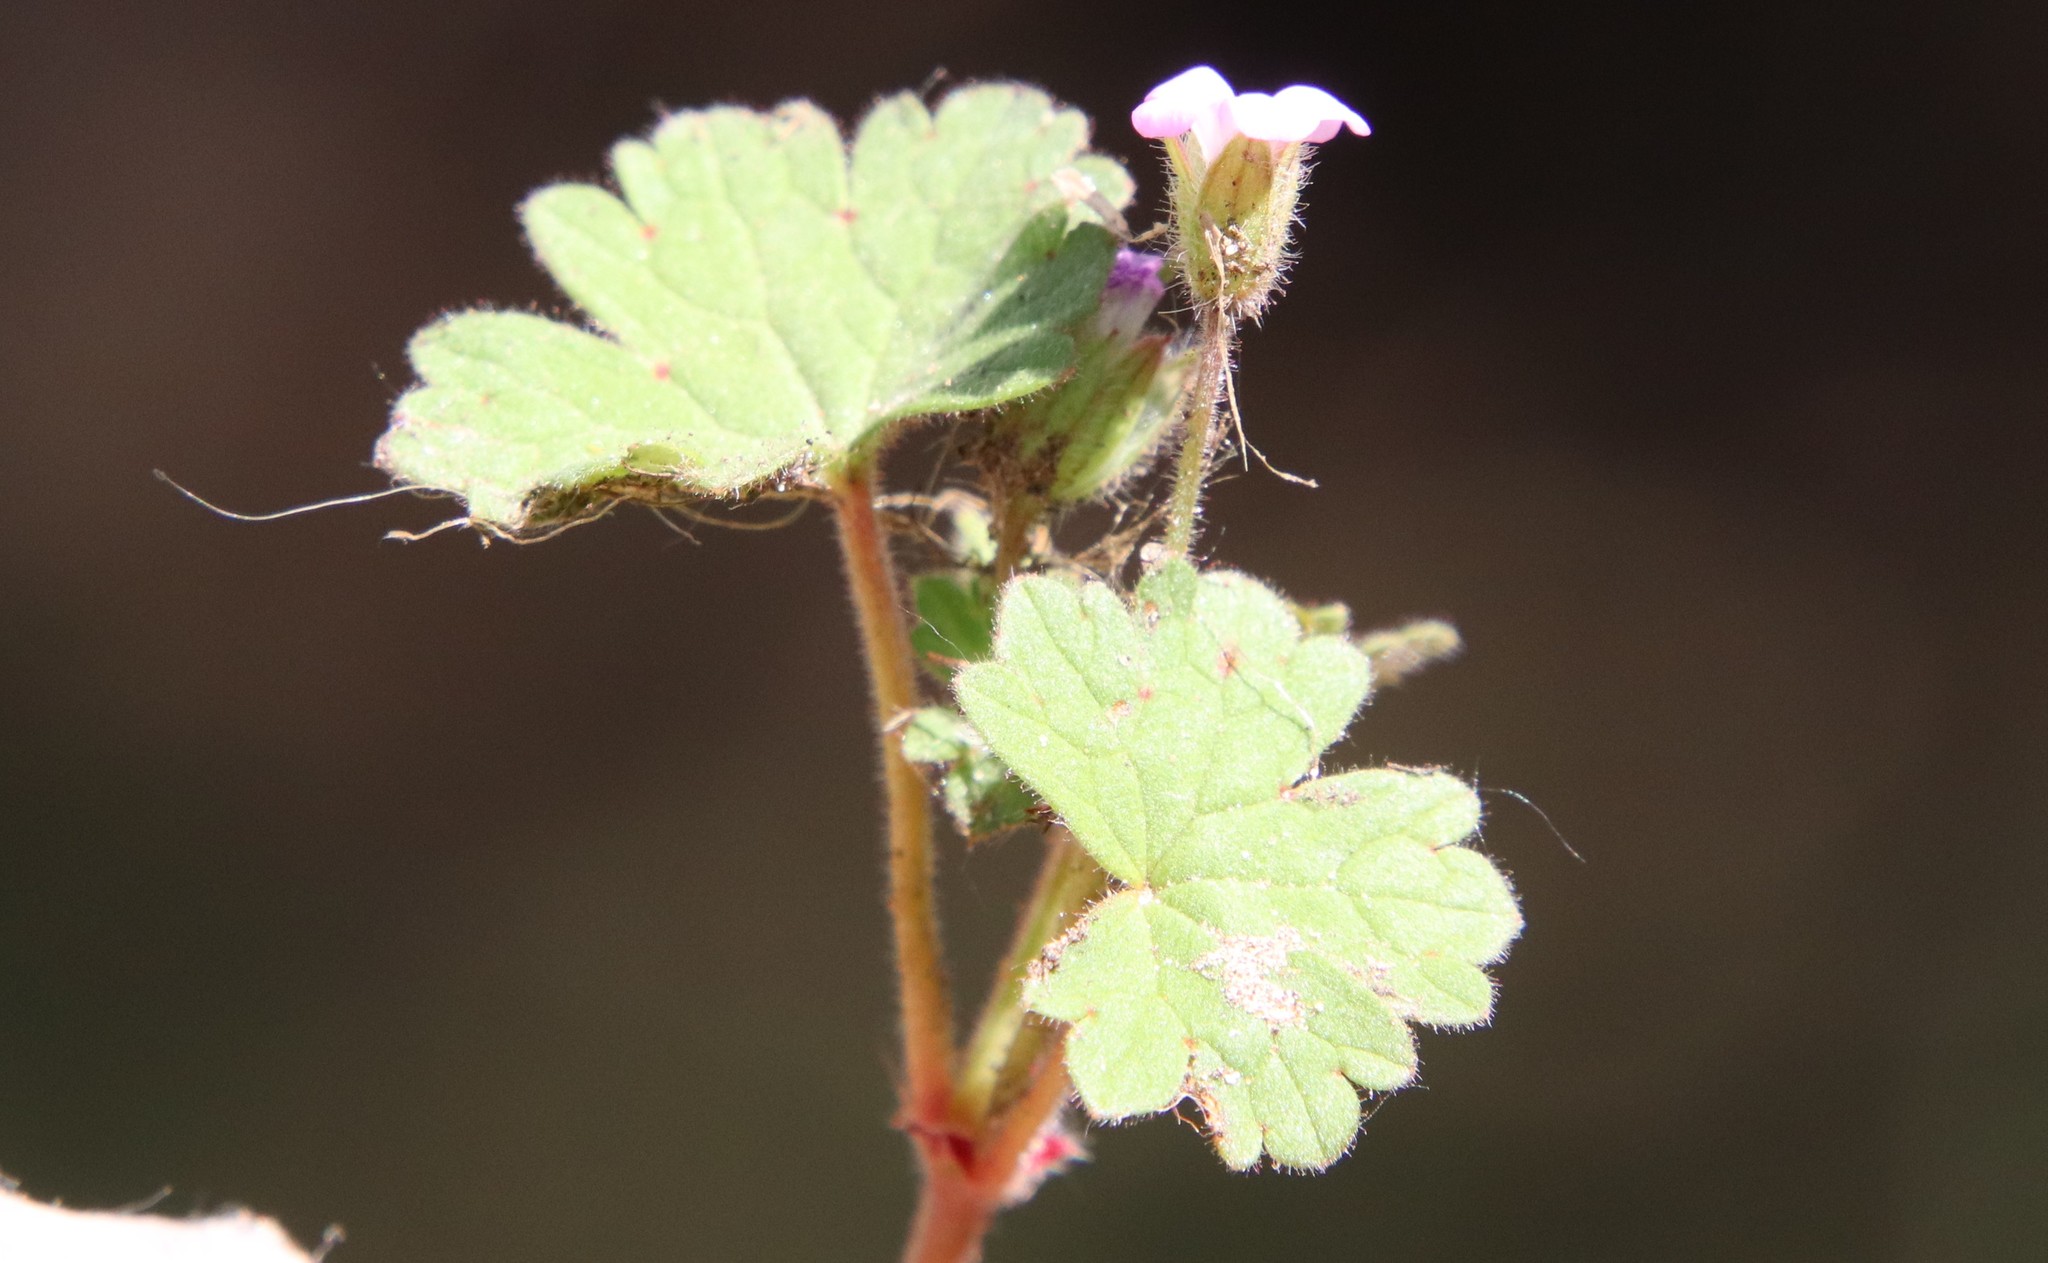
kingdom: Plantae
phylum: Tracheophyta
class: Magnoliopsida
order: Geraniales
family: Geraniaceae
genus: Geranium
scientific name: Geranium rotundifolium
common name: Round-leaved crane's-bill
